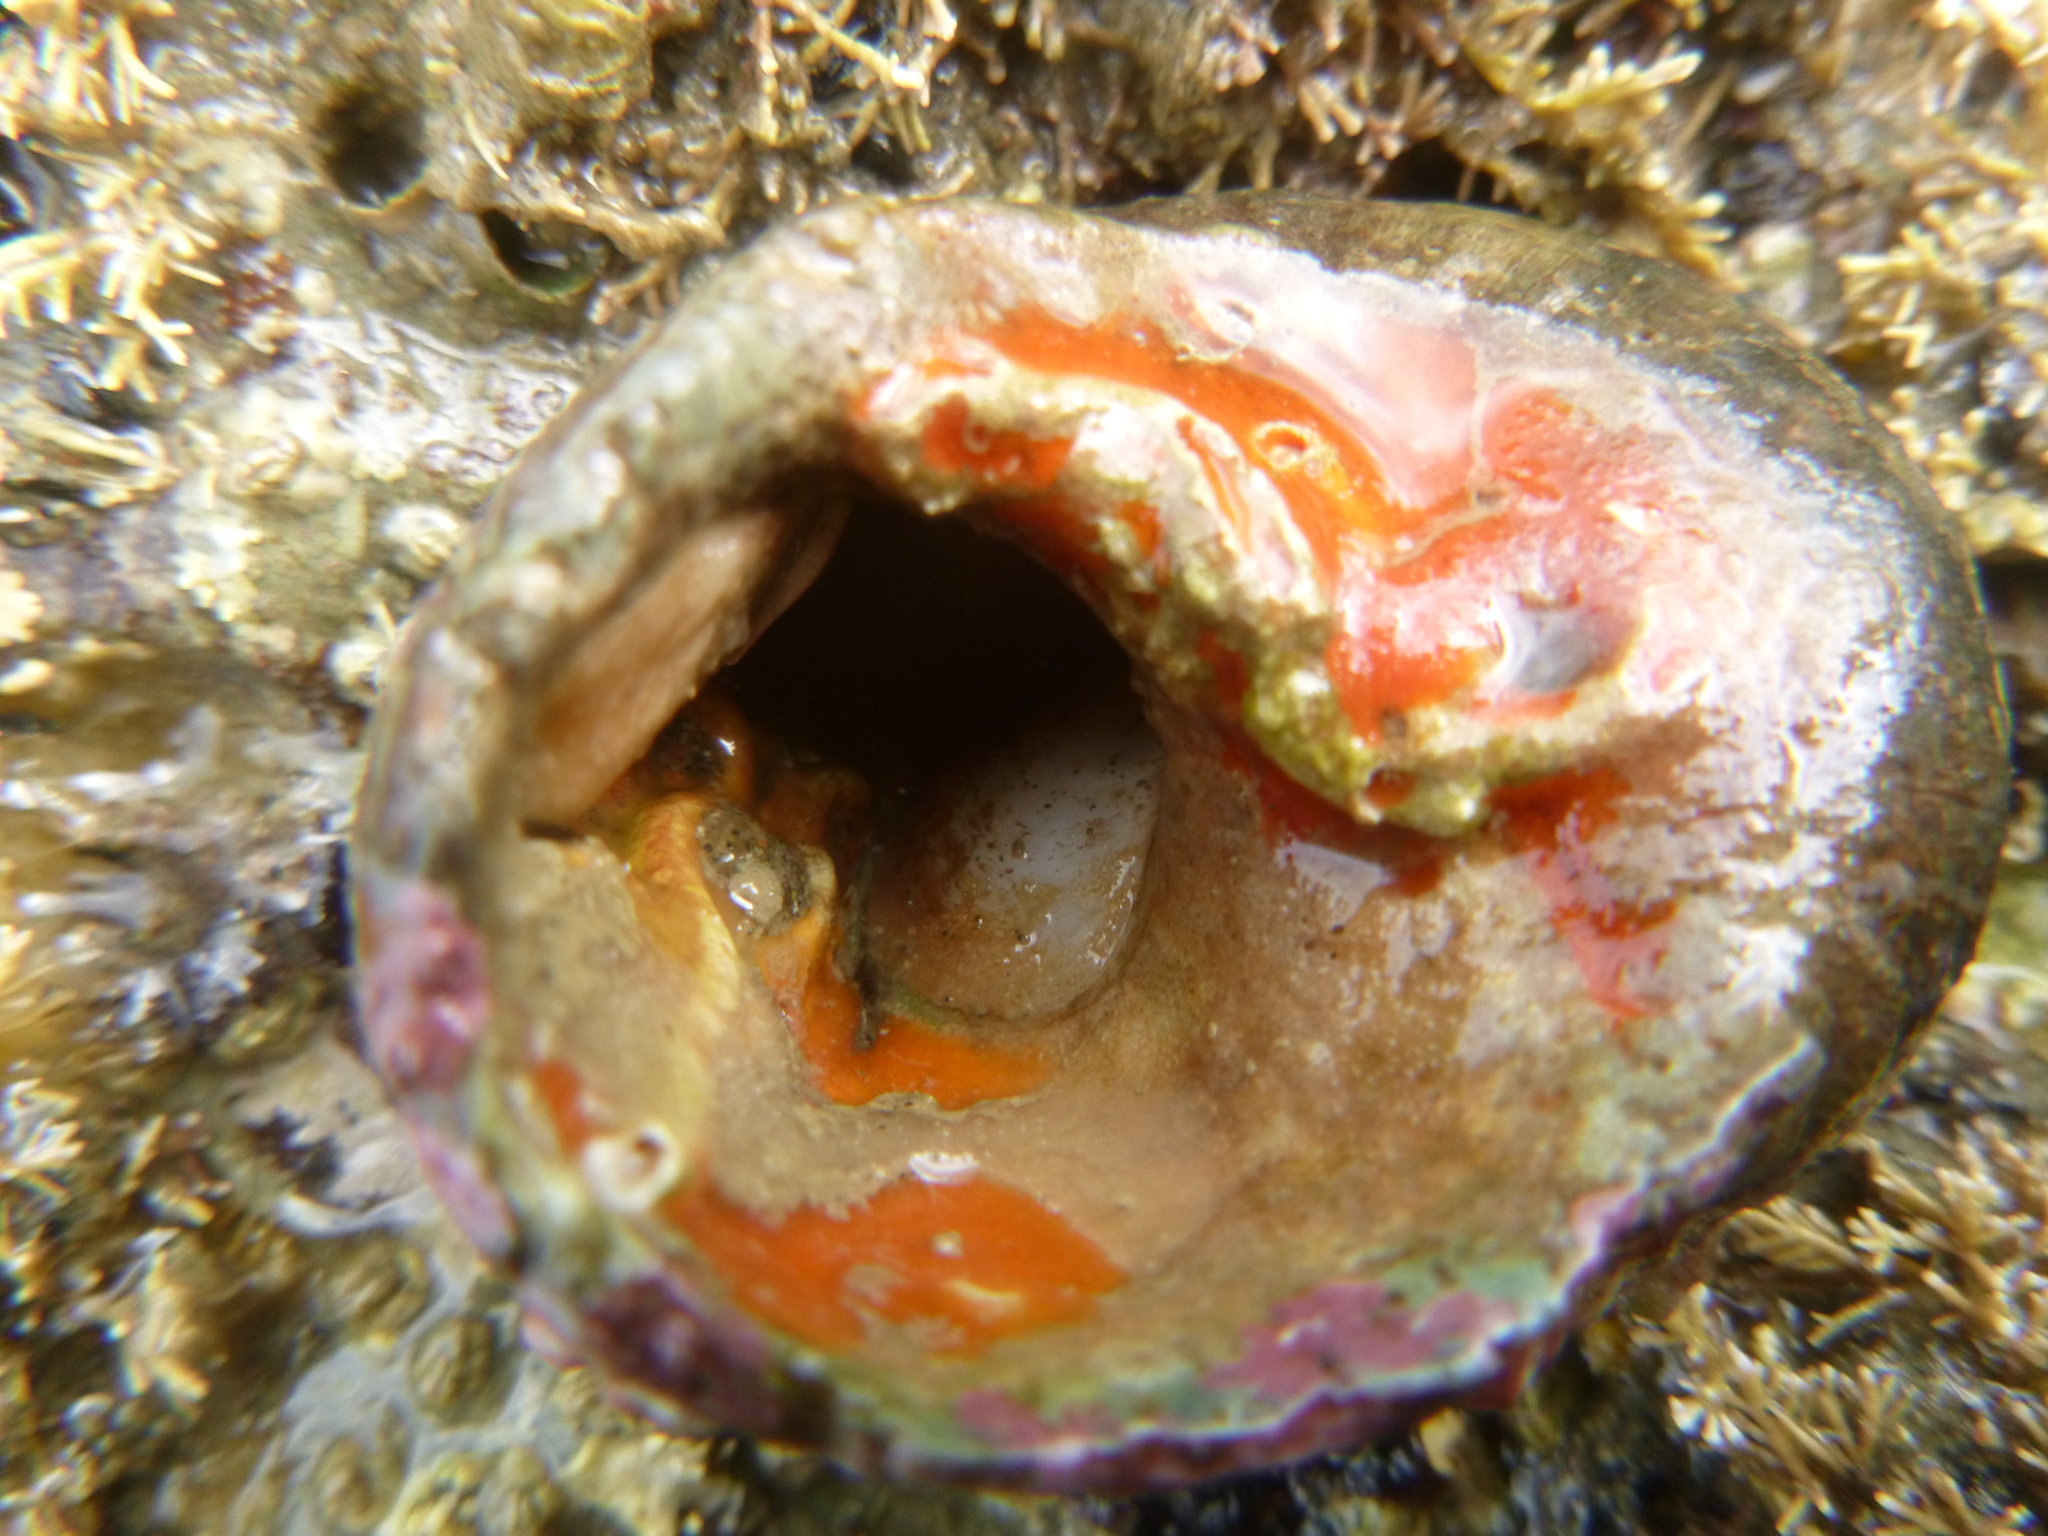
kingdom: Animalia
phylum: Mollusca
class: Gastropoda
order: Littorinimorpha
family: Calyptraeidae
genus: Maoricrypta
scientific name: Maoricrypta sodalis
